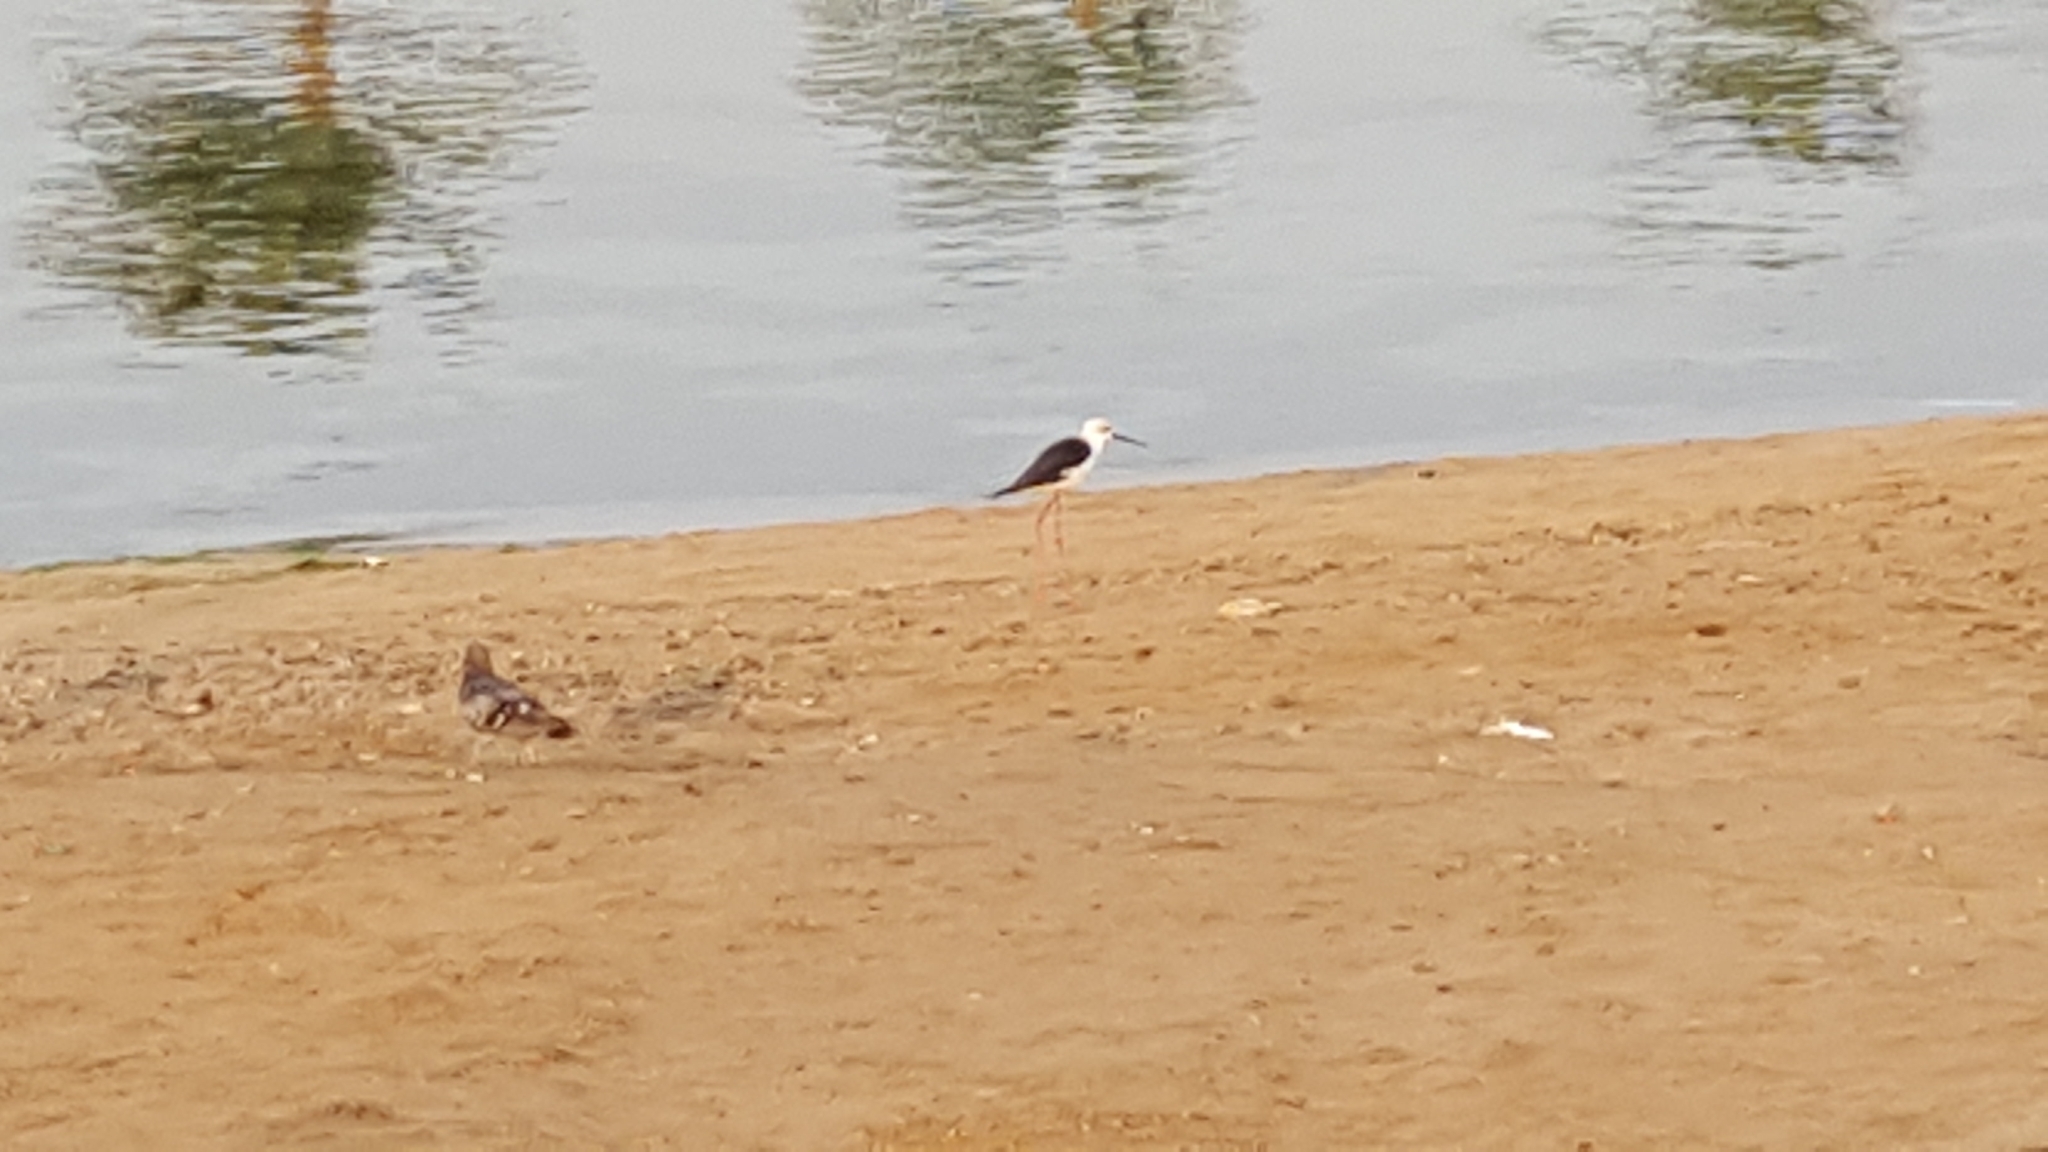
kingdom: Animalia
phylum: Chordata
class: Aves
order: Charadriiformes
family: Recurvirostridae
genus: Himantopus
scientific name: Himantopus himantopus
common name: Black-winged stilt
